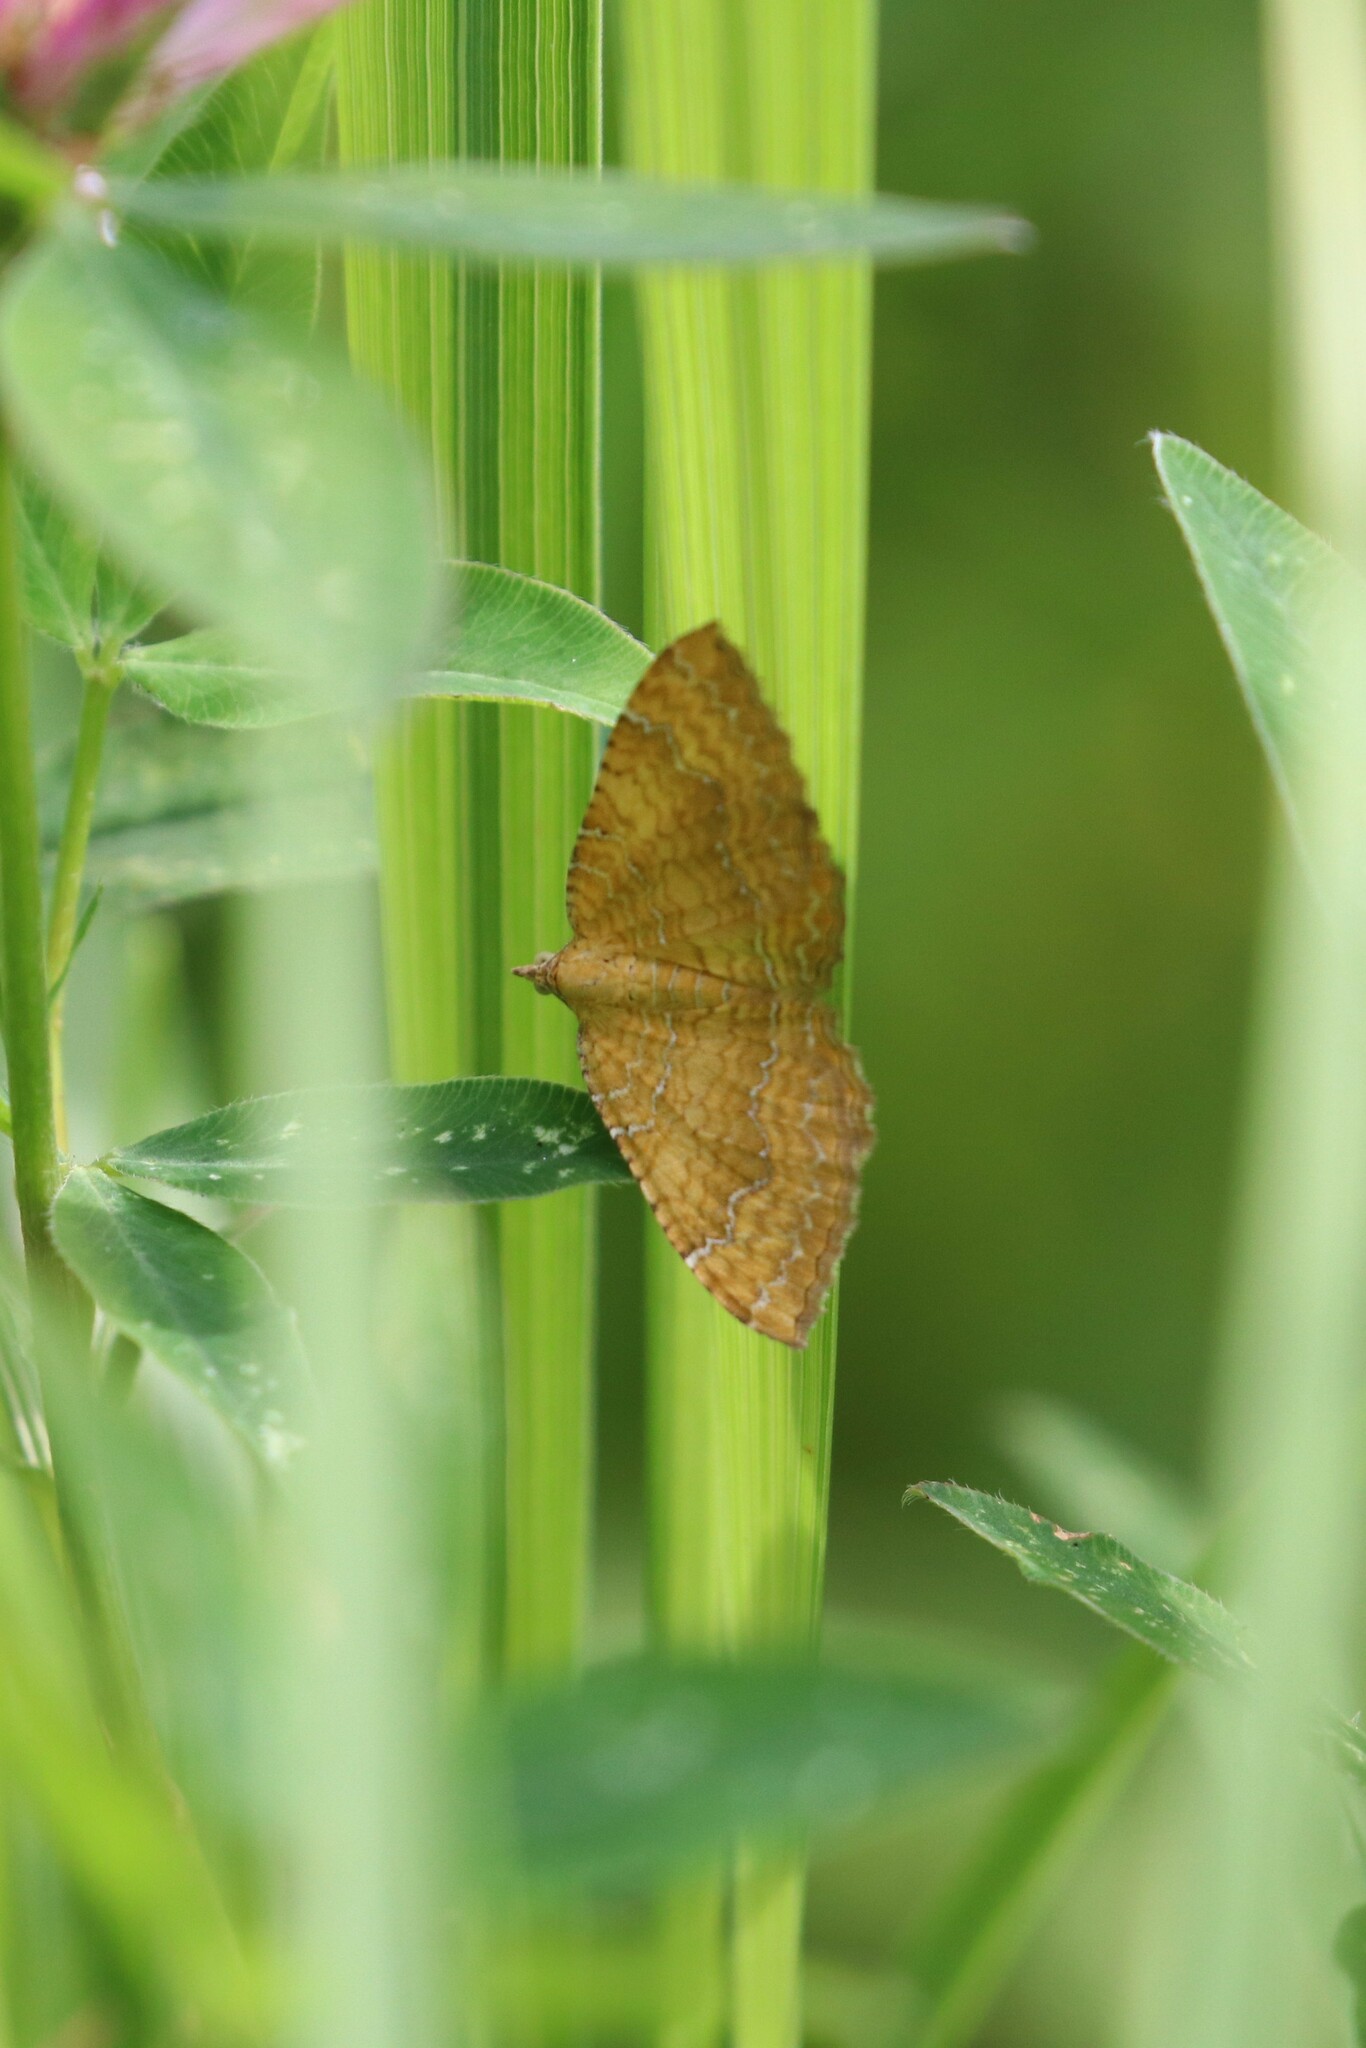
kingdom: Animalia
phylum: Arthropoda
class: Insecta
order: Lepidoptera
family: Geometridae
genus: Camptogramma
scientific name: Camptogramma bilineata
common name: Yellow shell
